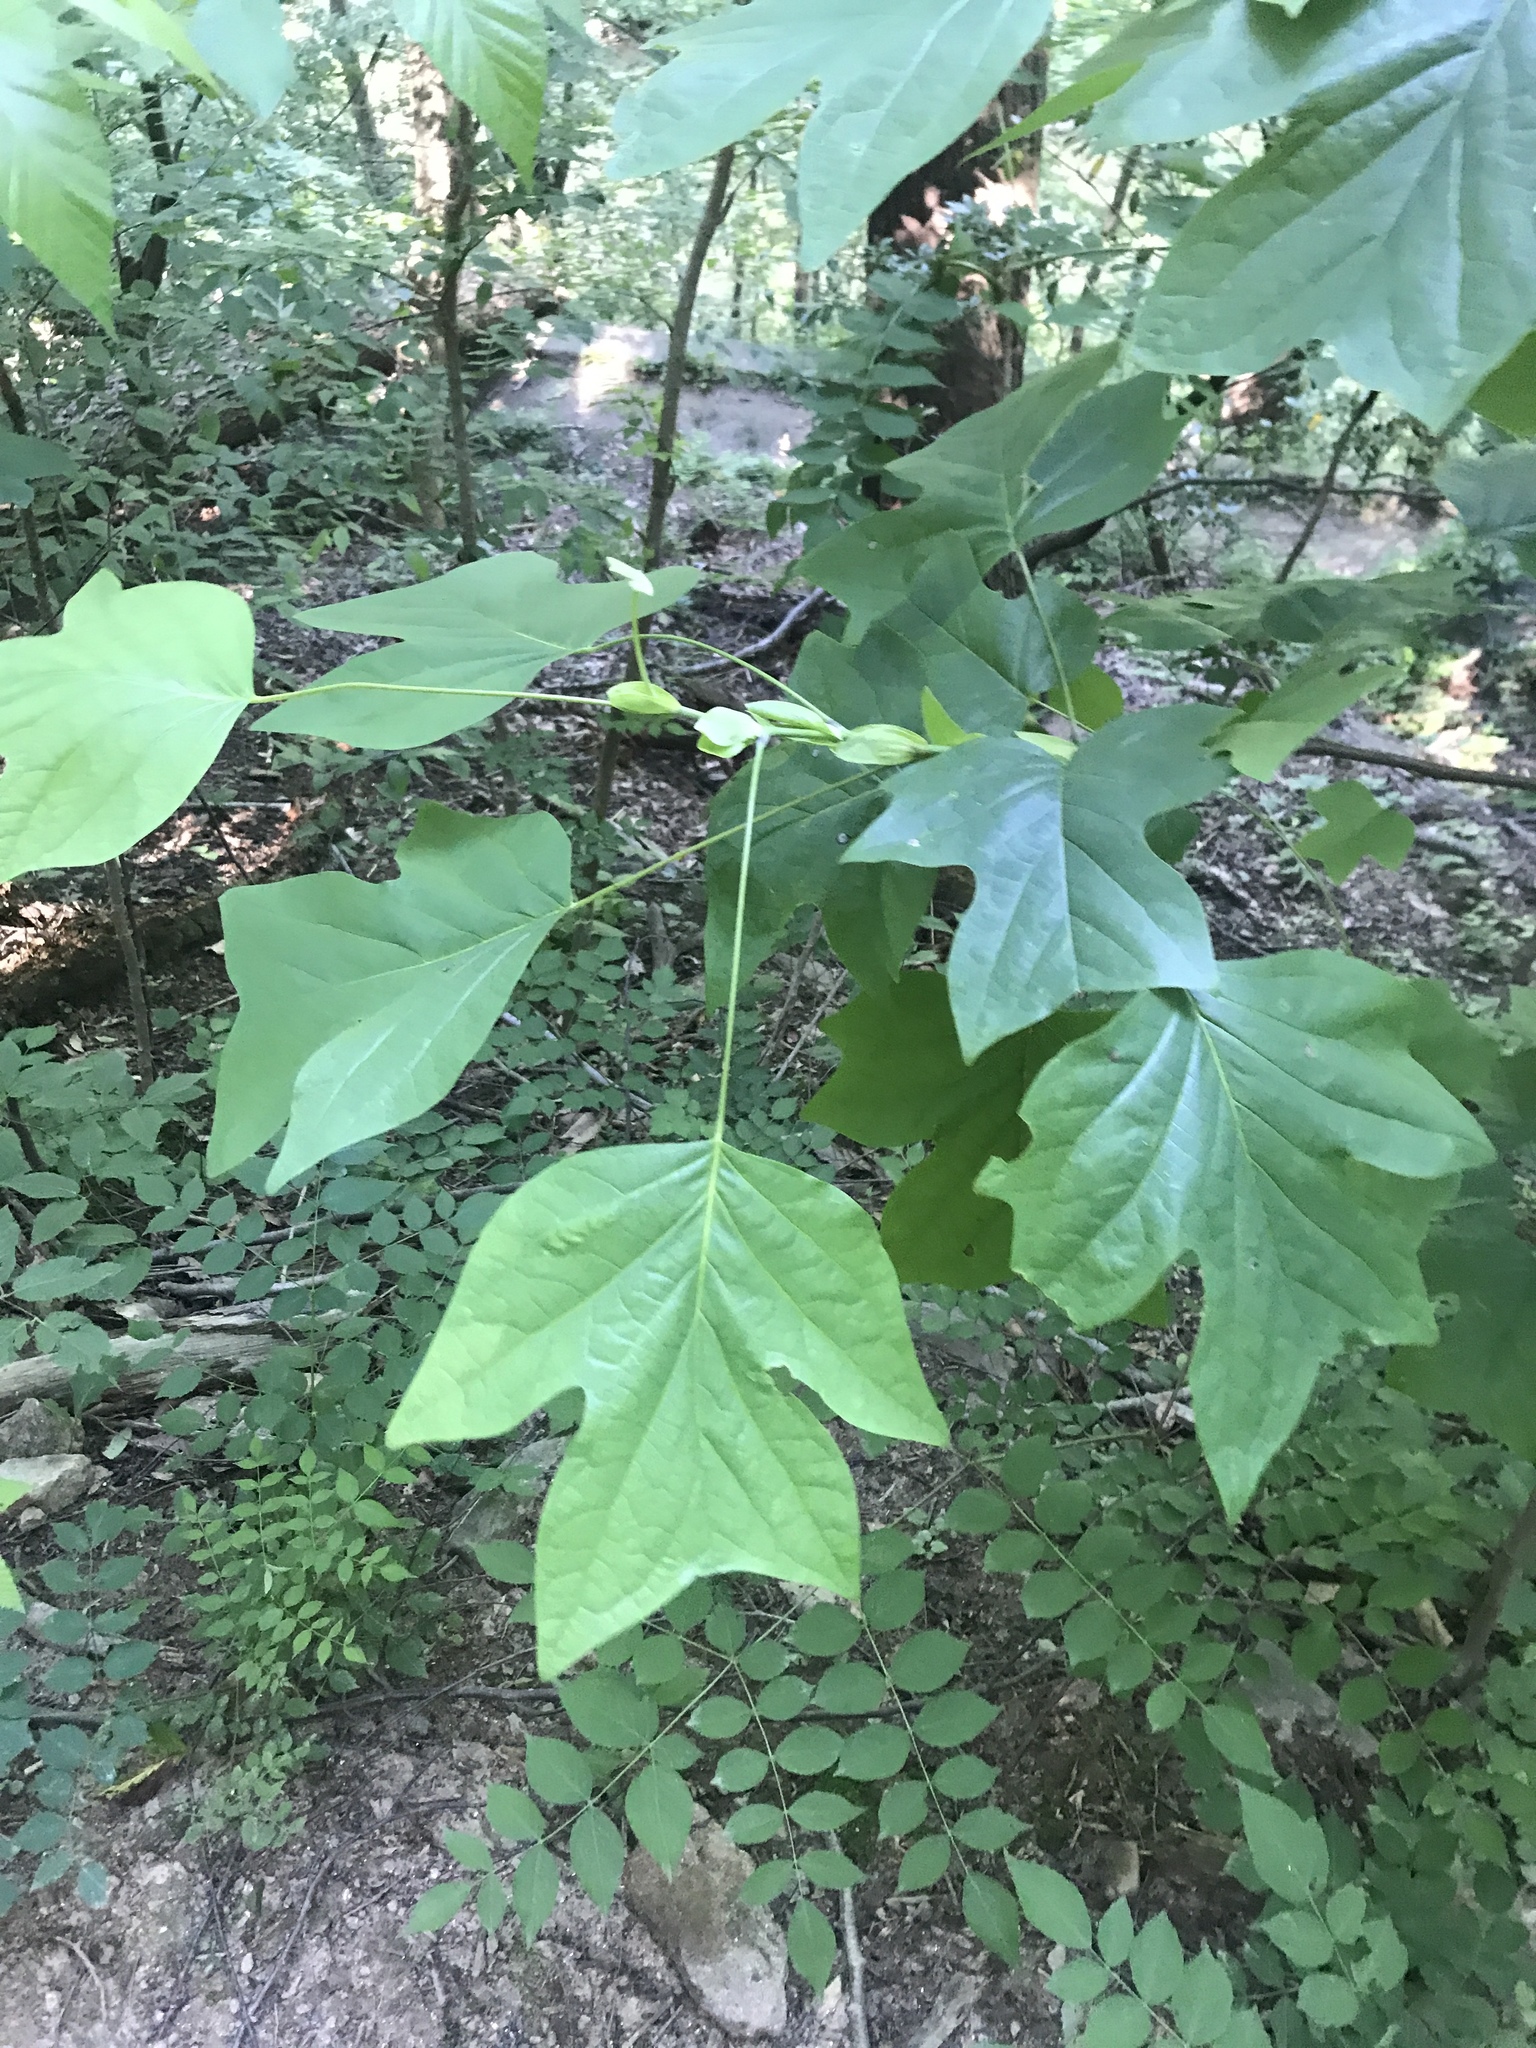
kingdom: Plantae
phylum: Tracheophyta
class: Magnoliopsida
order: Magnoliales
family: Magnoliaceae
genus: Liriodendron
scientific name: Liriodendron tulipifera
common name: Tulip tree
